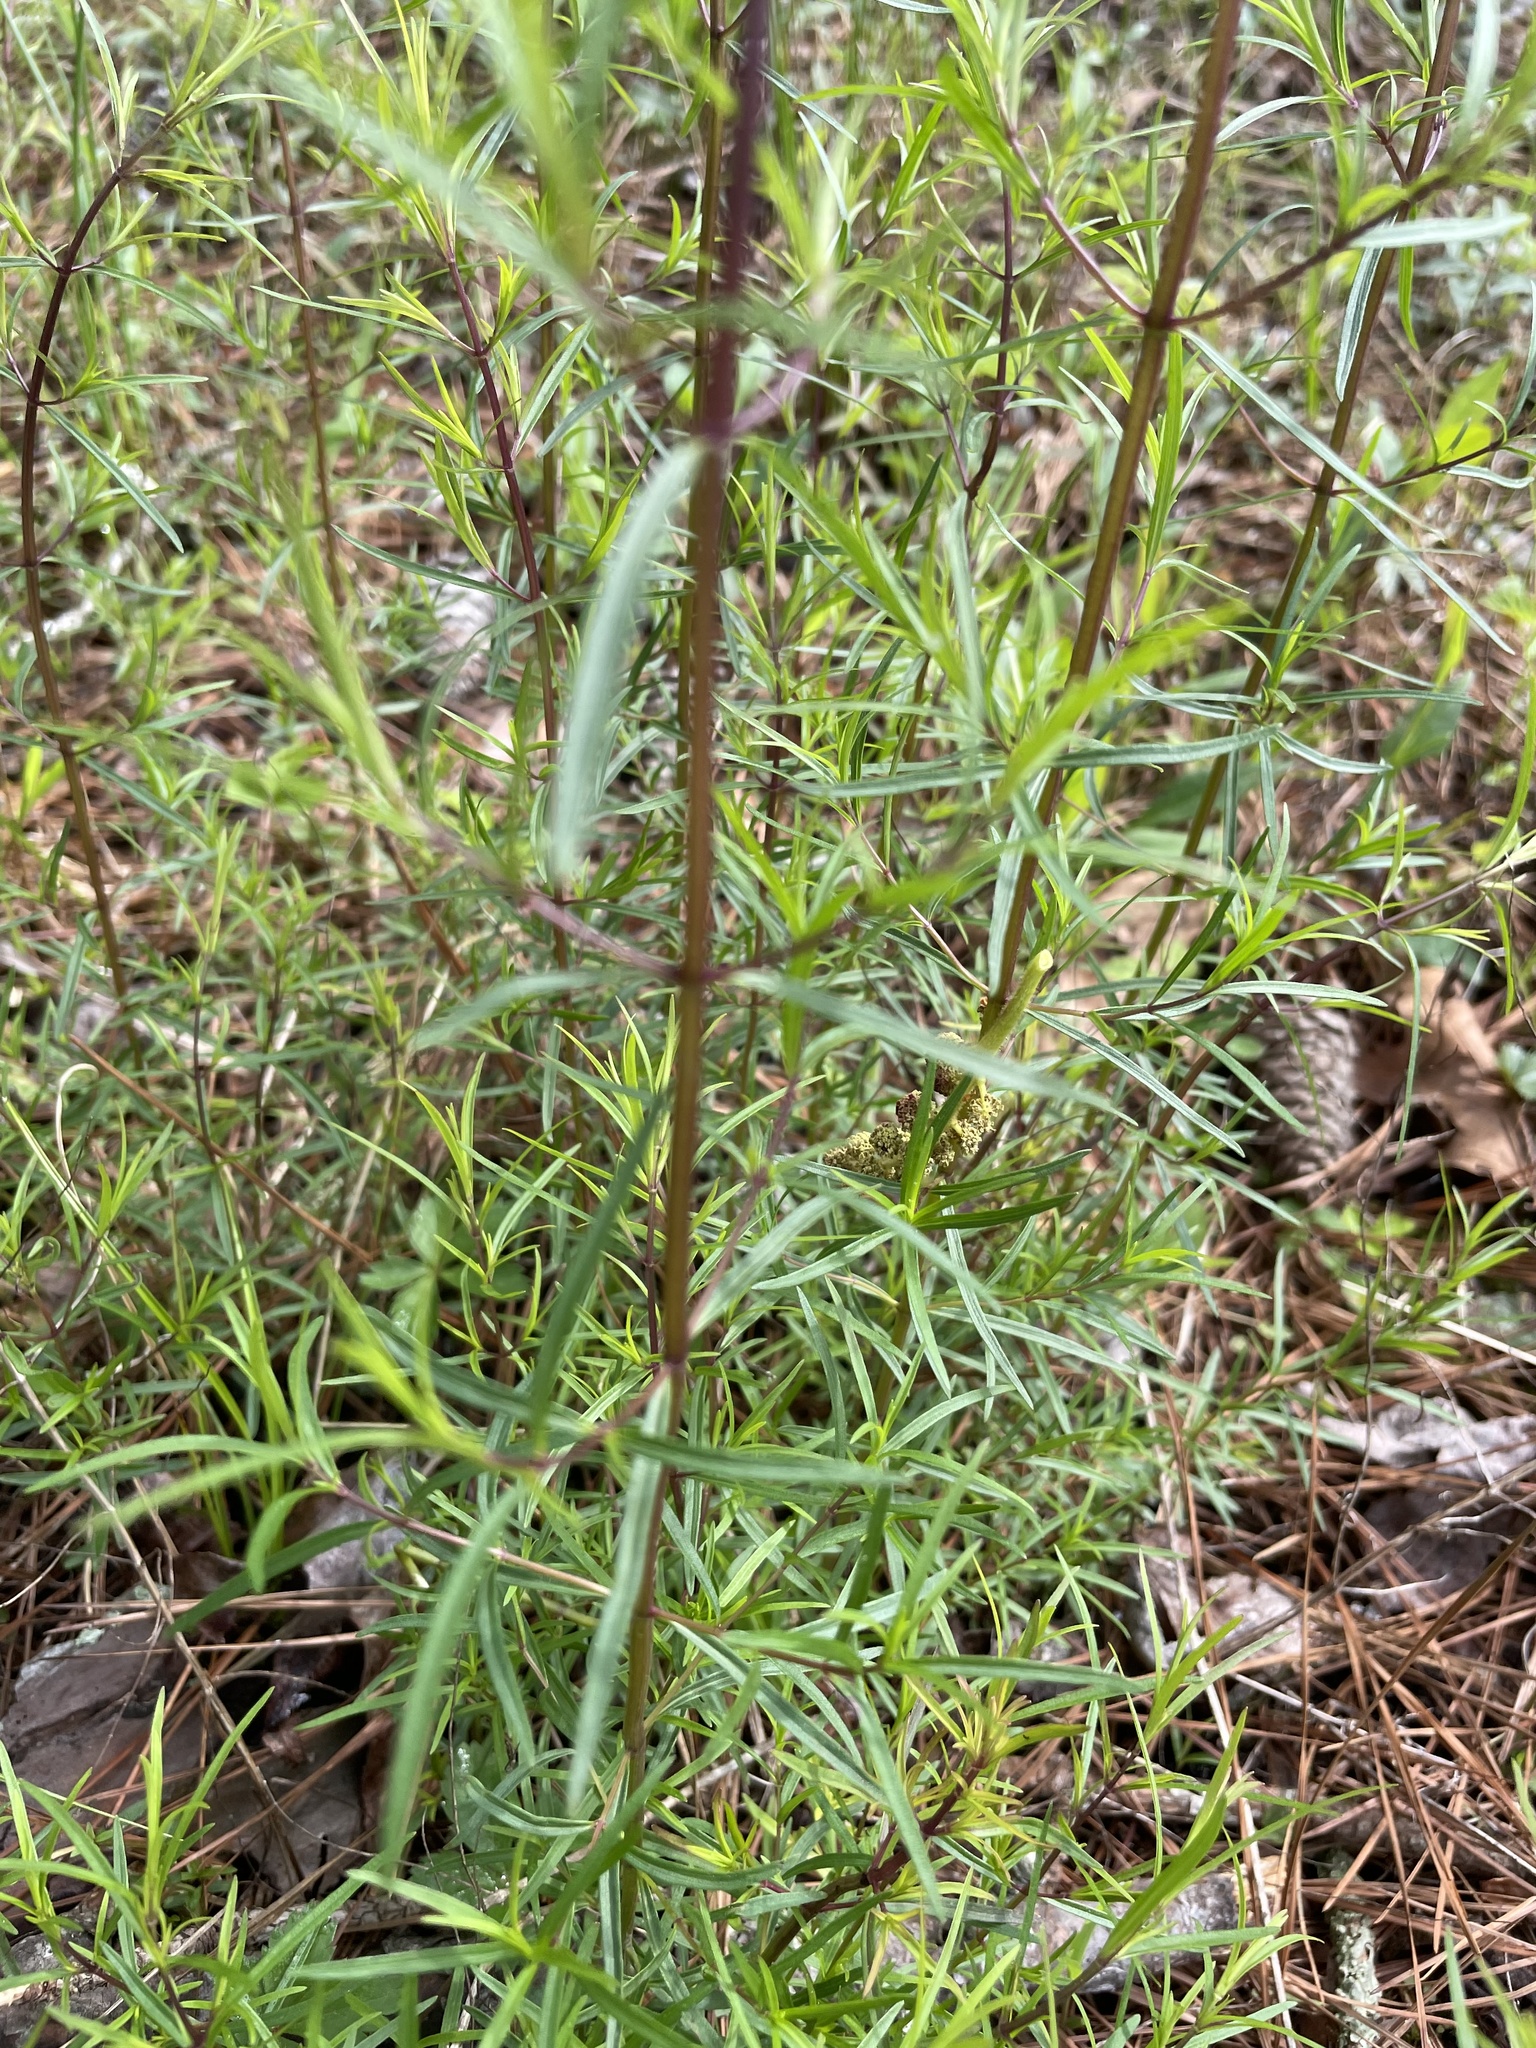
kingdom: Plantae
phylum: Tracheophyta
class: Magnoliopsida
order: Lamiales
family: Lamiaceae
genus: Pycnanthemum
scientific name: Pycnanthemum tenuifolium
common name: Narrow-leaf mountain-mint
